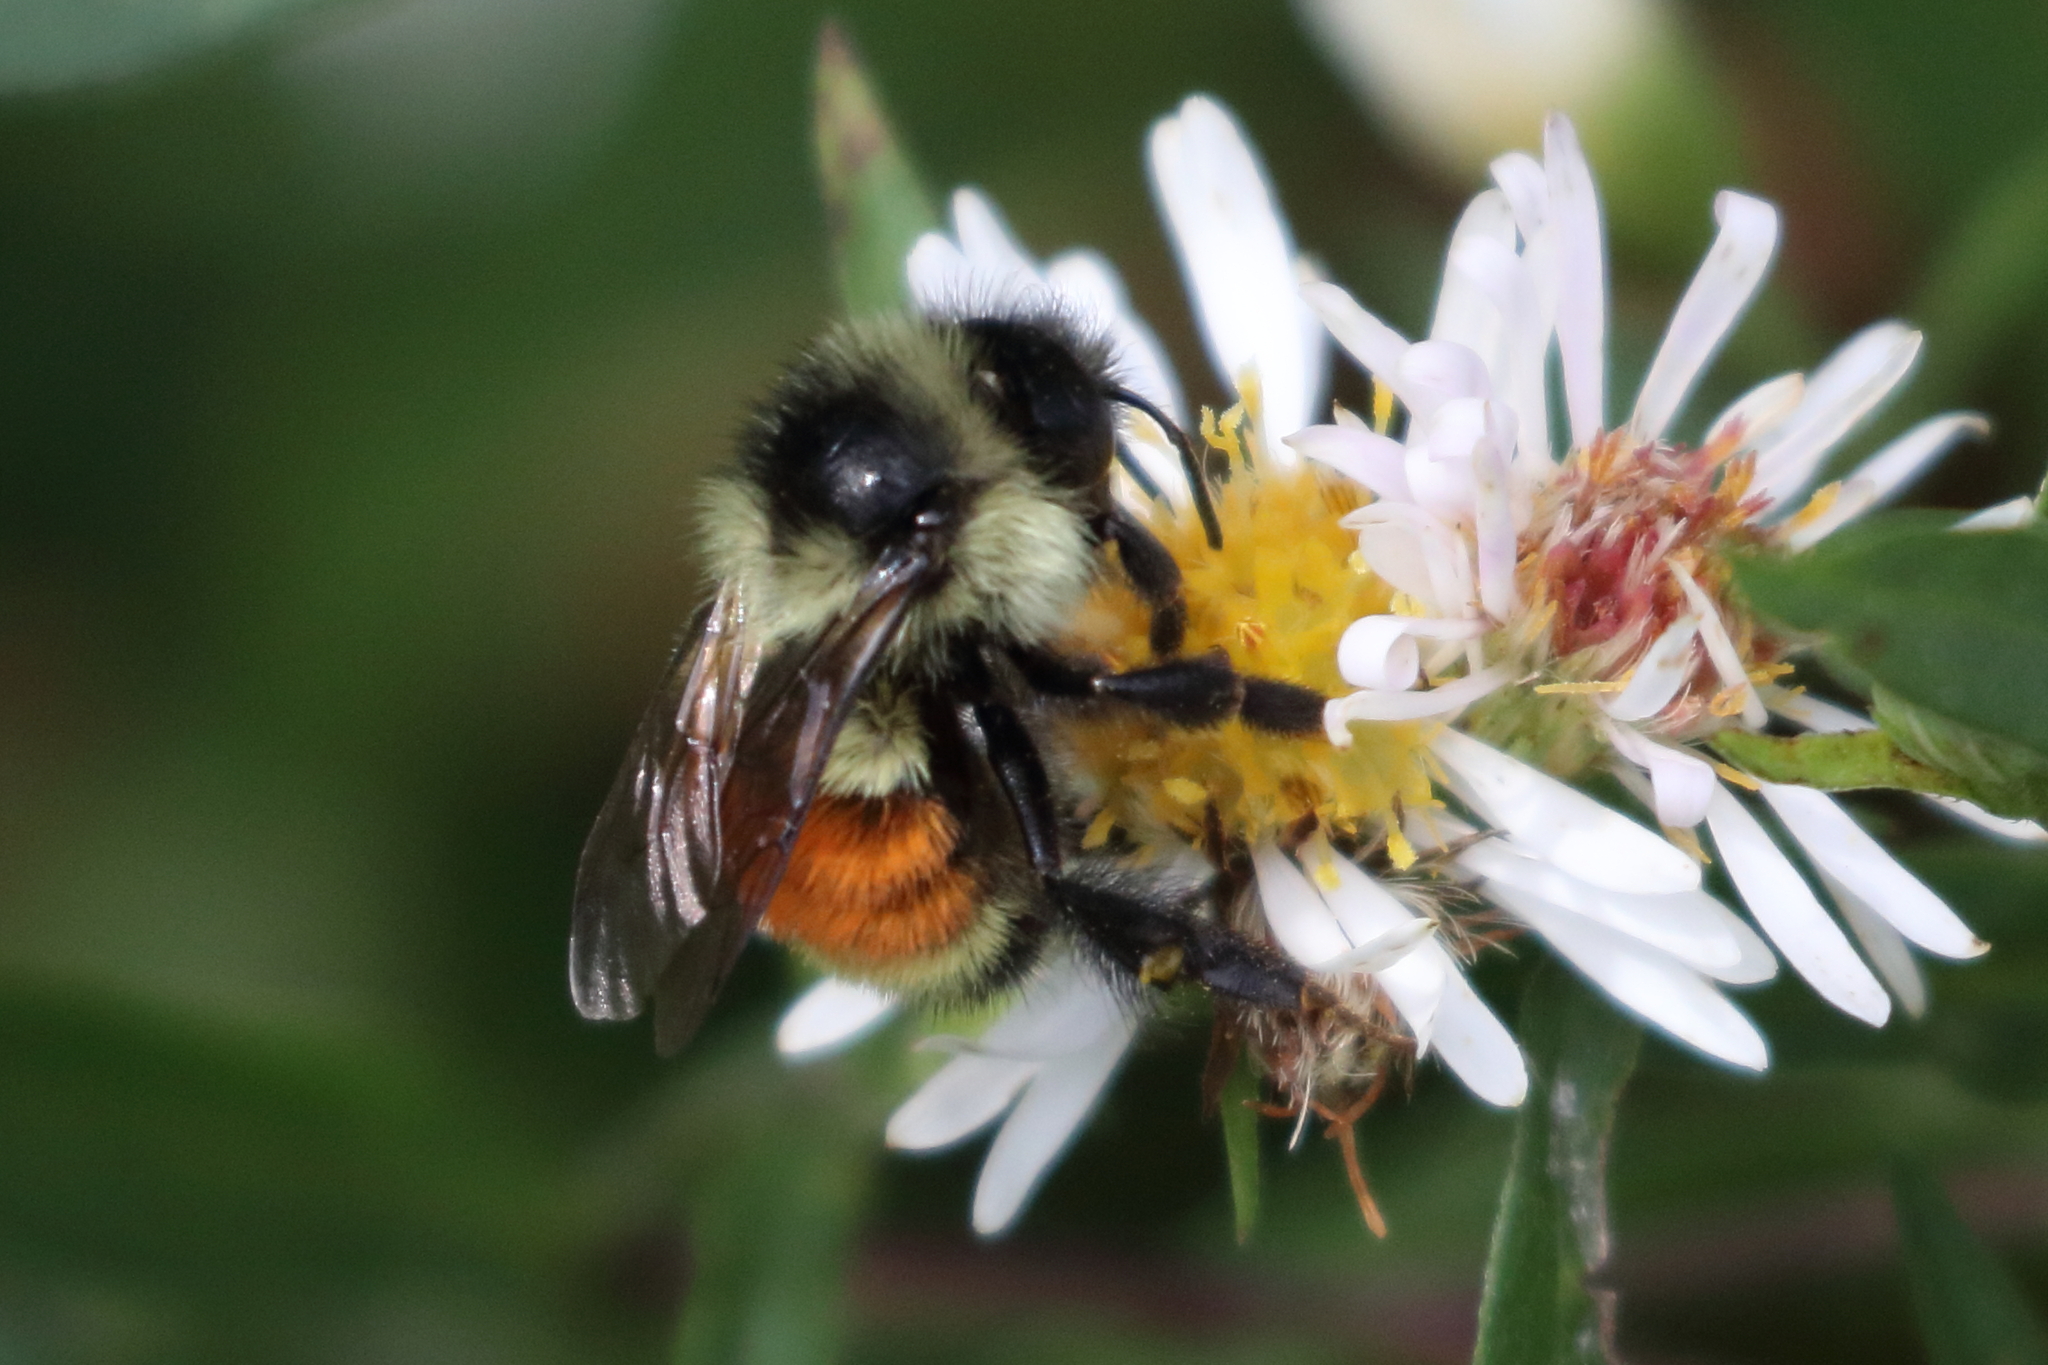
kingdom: Animalia
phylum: Arthropoda
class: Insecta
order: Hymenoptera
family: Apidae
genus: Bombus
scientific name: Bombus ternarius
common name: Tri-colored bumble bee
